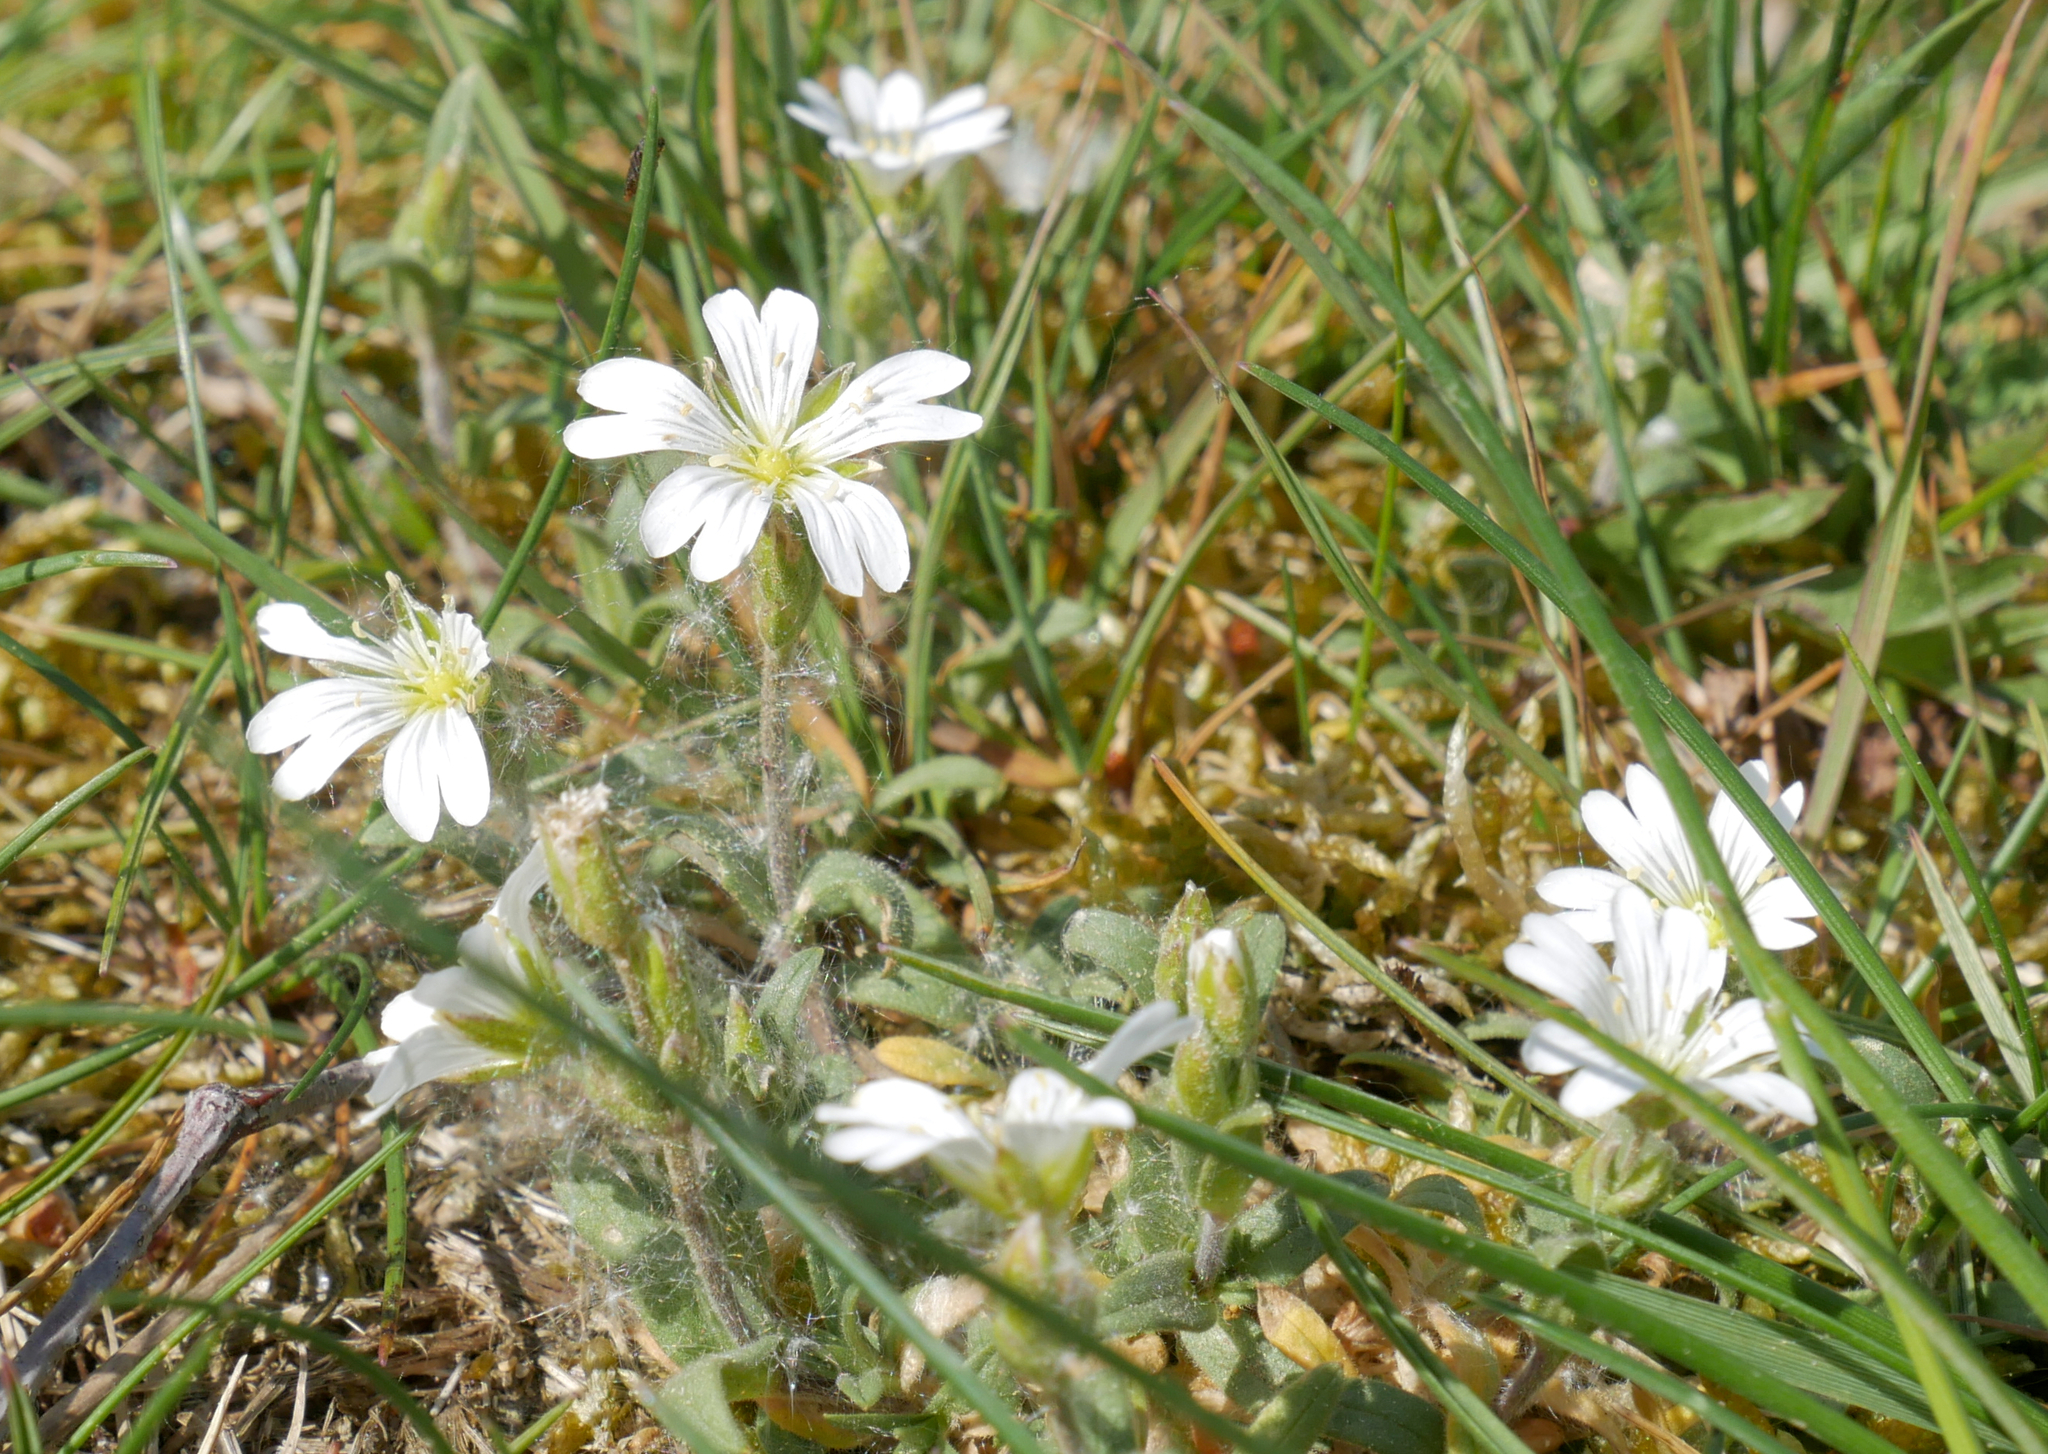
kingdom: Plantae
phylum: Tracheophyta
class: Magnoliopsida
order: Caryophyllales
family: Caryophyllaceae
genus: Cerastium
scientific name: Cerastium arvense
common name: Field mouse-ear
